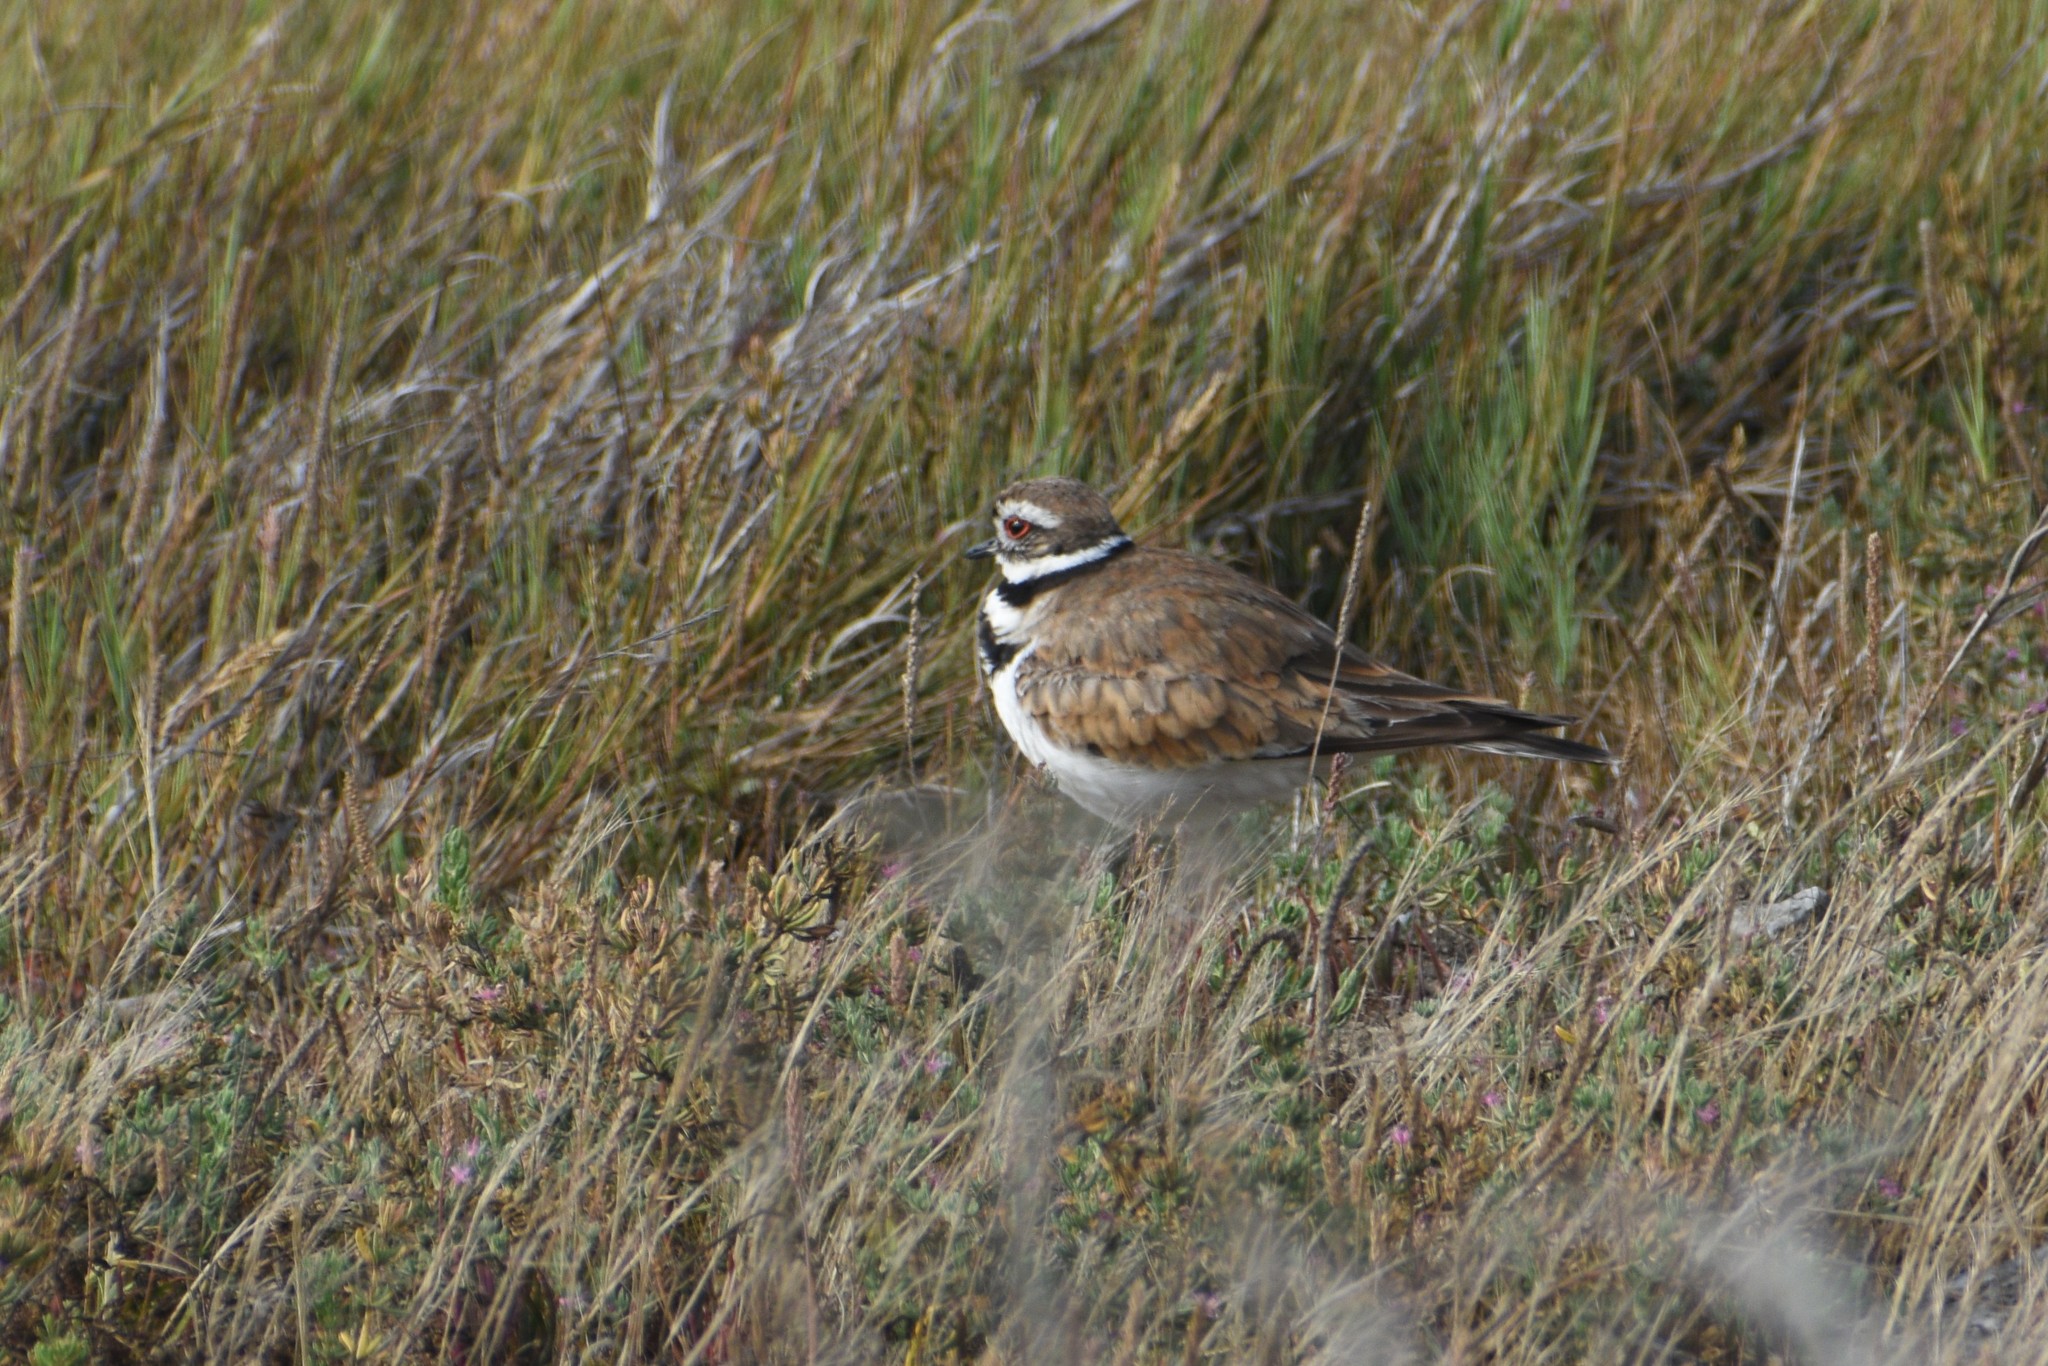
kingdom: Animalia
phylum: Chordata
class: Aves
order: Charadriiformes
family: Charadriidae
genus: Charadrius
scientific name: Charadrius vociferus
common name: Killdeer
